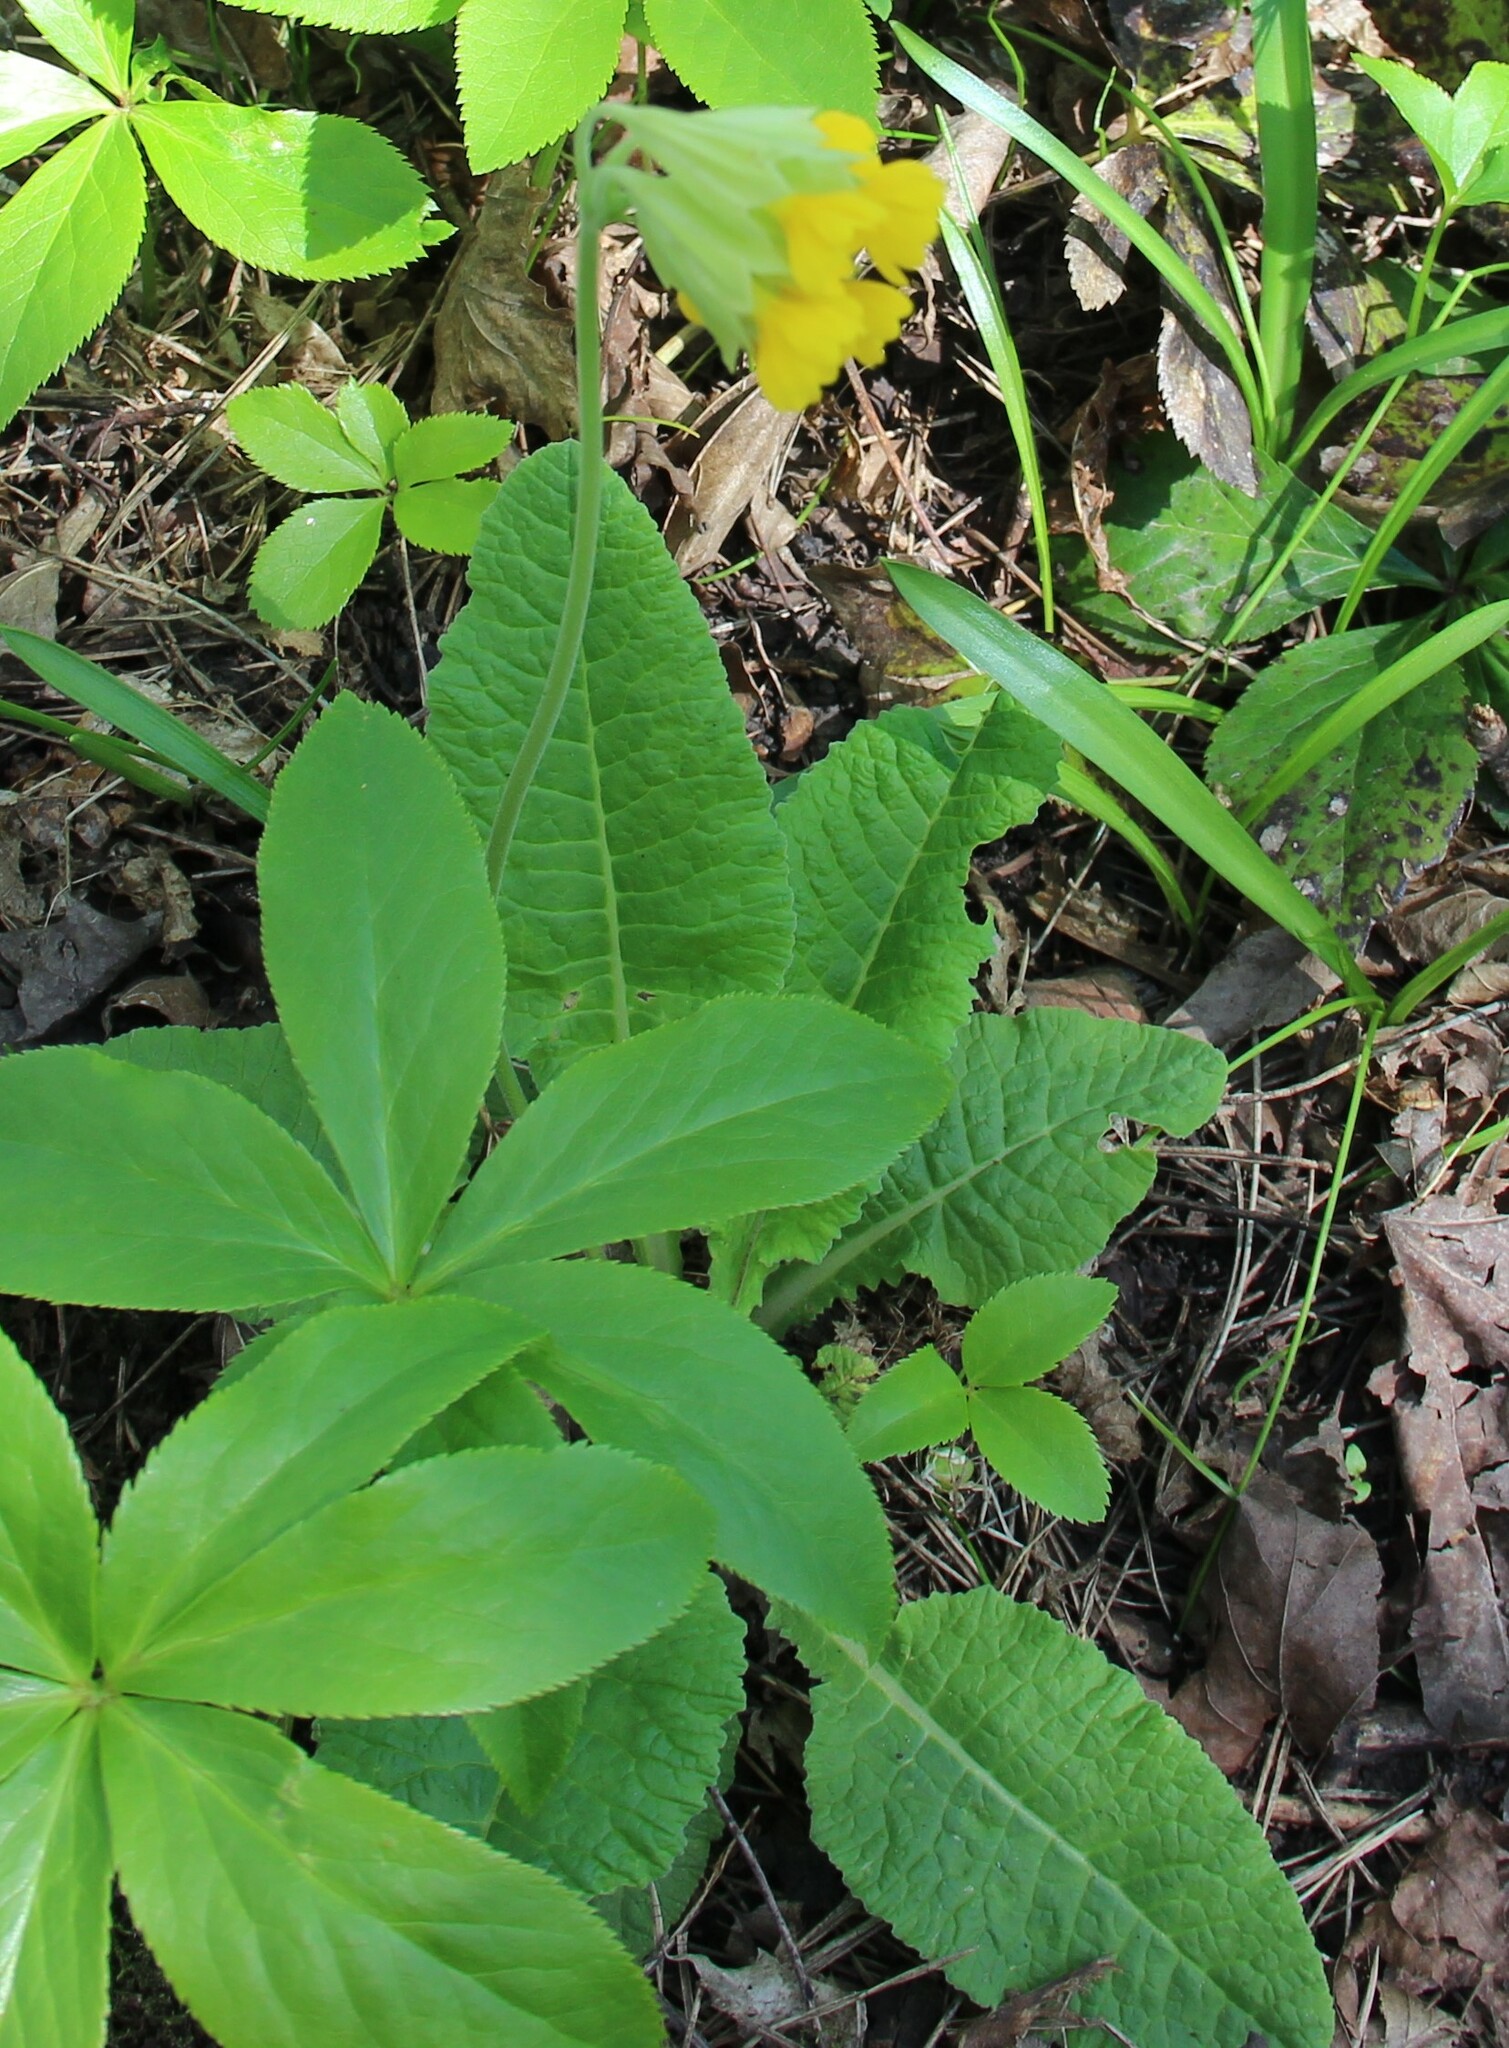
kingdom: Plantae
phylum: Tracheophyta
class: Magnoliopsida
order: Ericales
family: Primulaceae
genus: Primula
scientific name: Primula veris
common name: Cowslip
